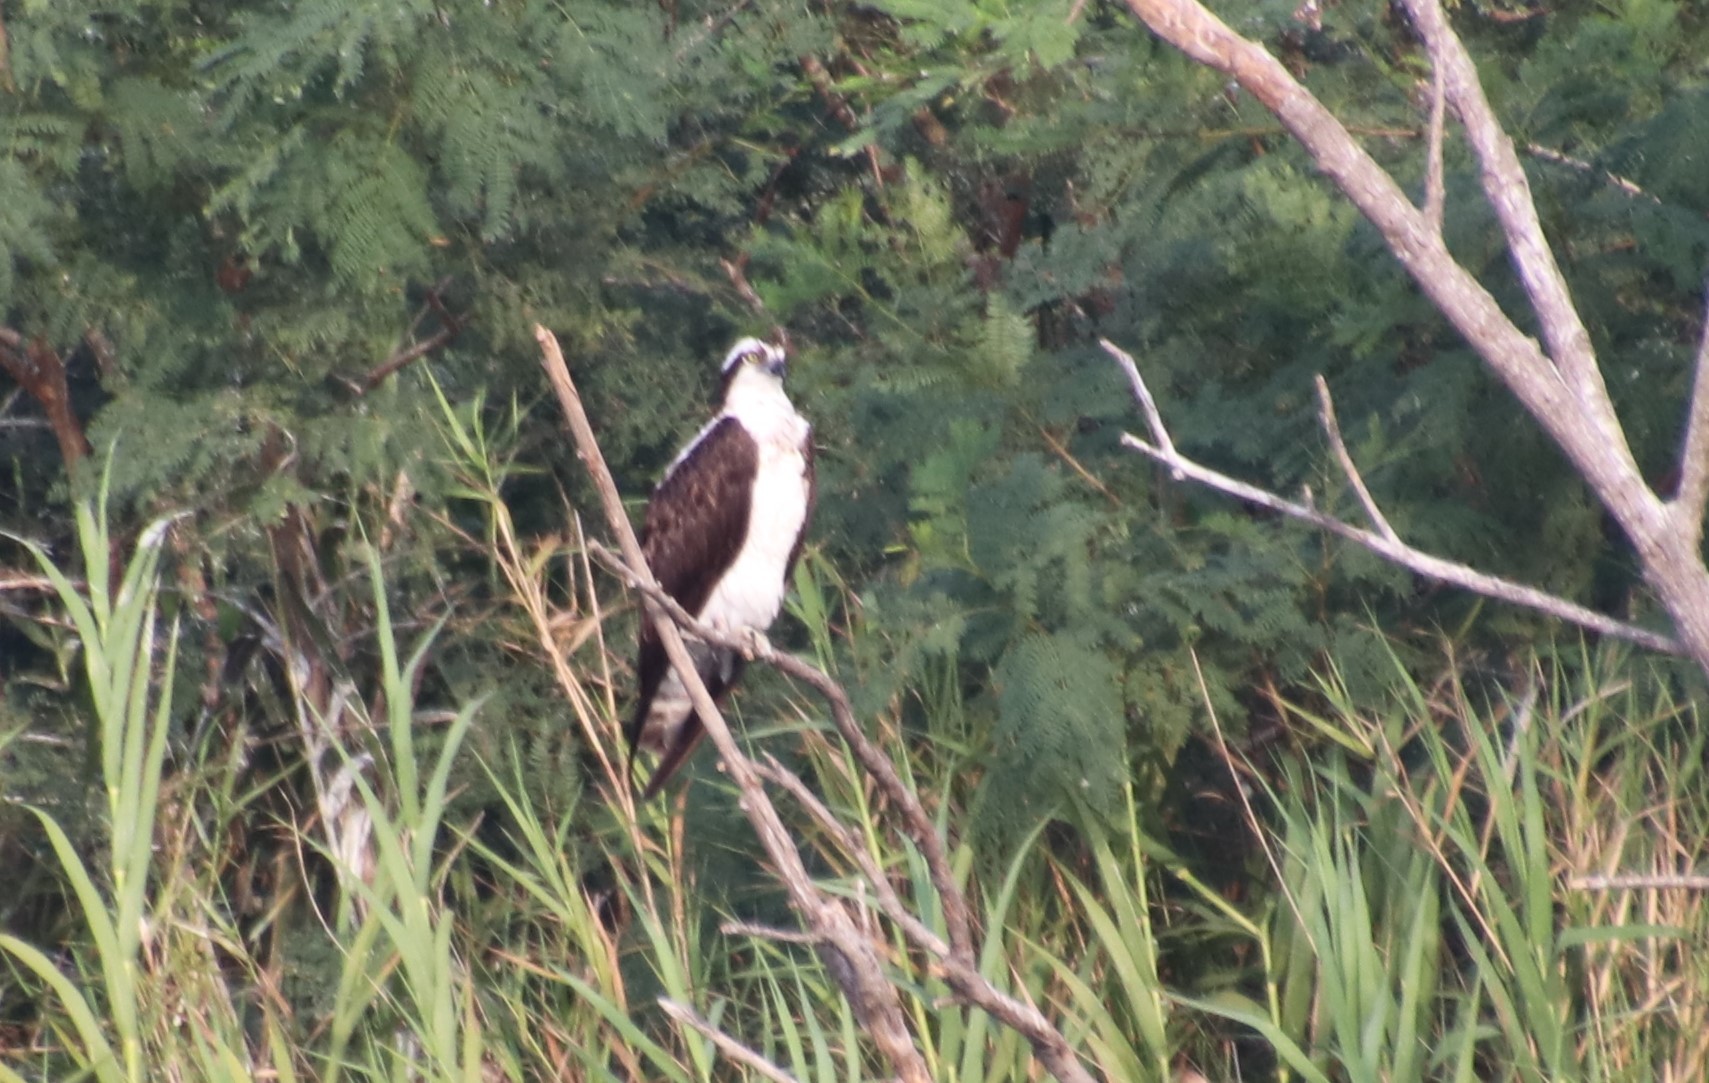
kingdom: Animalia
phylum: Chordata
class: Aves
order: Accipitriformes
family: Pandionidae
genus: Pandion
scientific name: Pandion haliaetus
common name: Osprey
